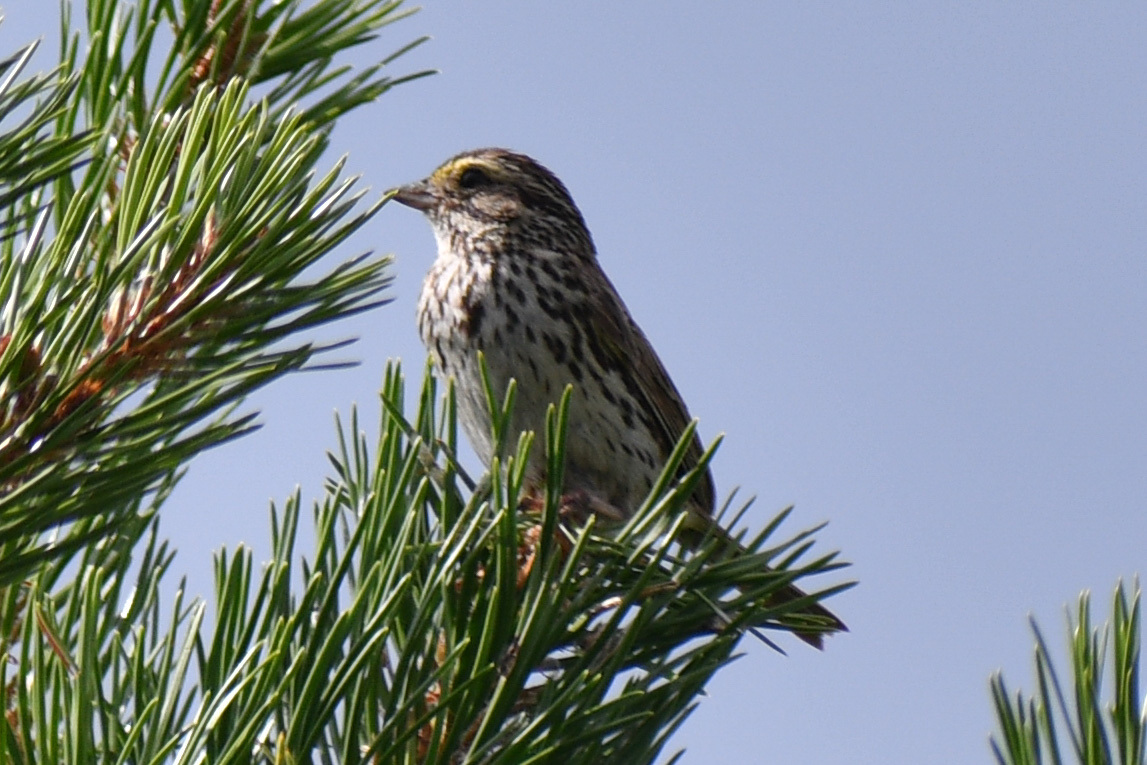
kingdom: Animalia
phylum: Chordata
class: Aves
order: Passeriformes
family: Passerellidae
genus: Passerculus
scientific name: Passerculus sandwichensis
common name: Savannah sparrow
